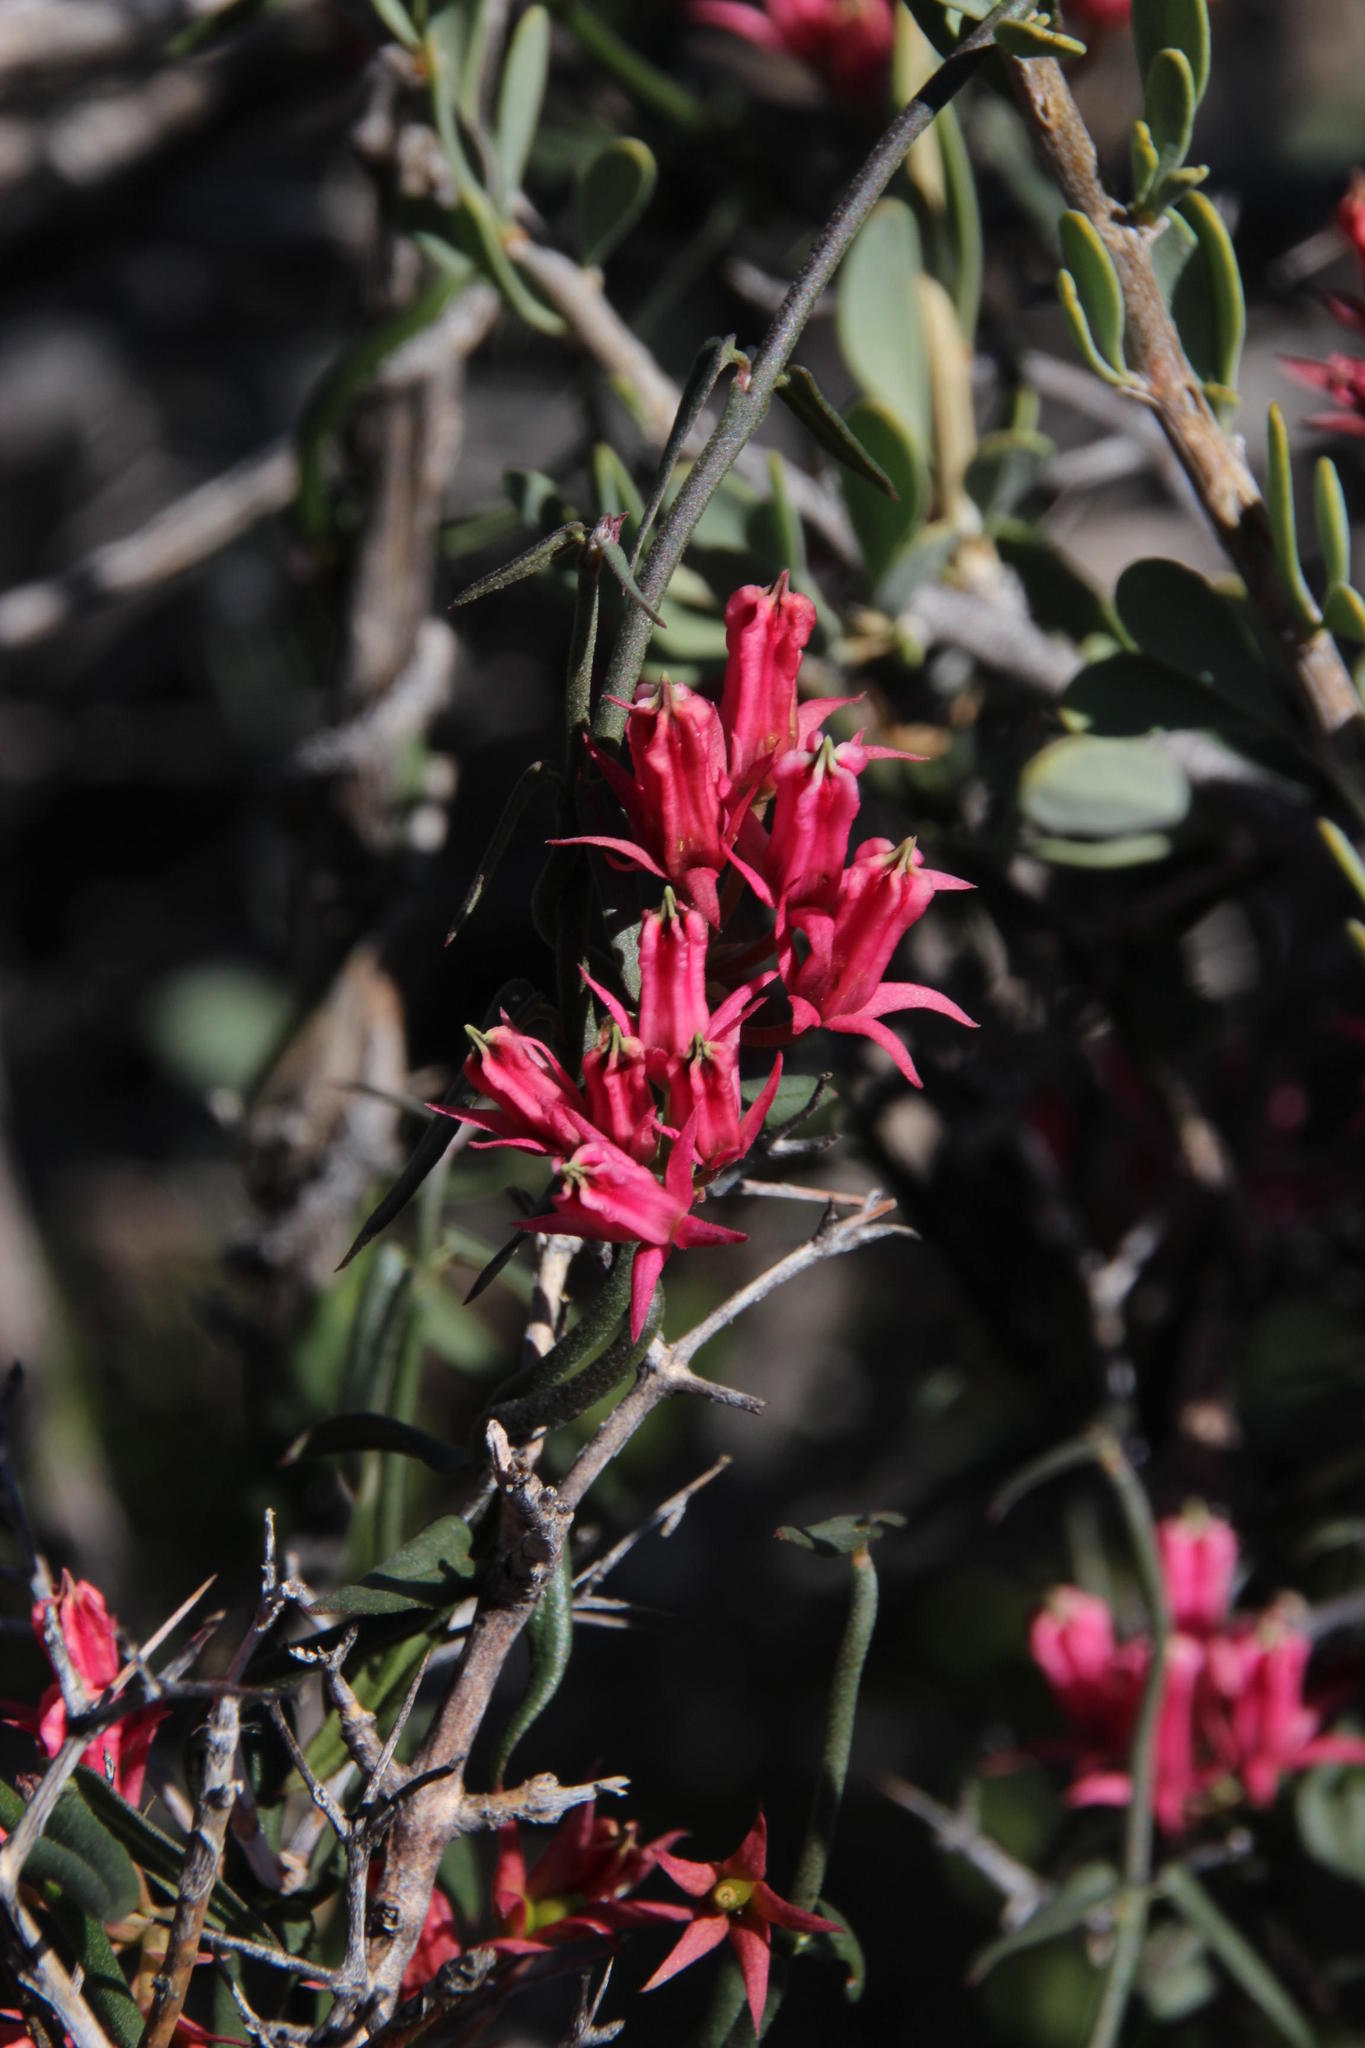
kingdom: Plantae
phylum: Tracheophyta
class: Magnoliopsida
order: Gentianales
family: Apocynaceae
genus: Microloma
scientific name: Microloma sagittatum
